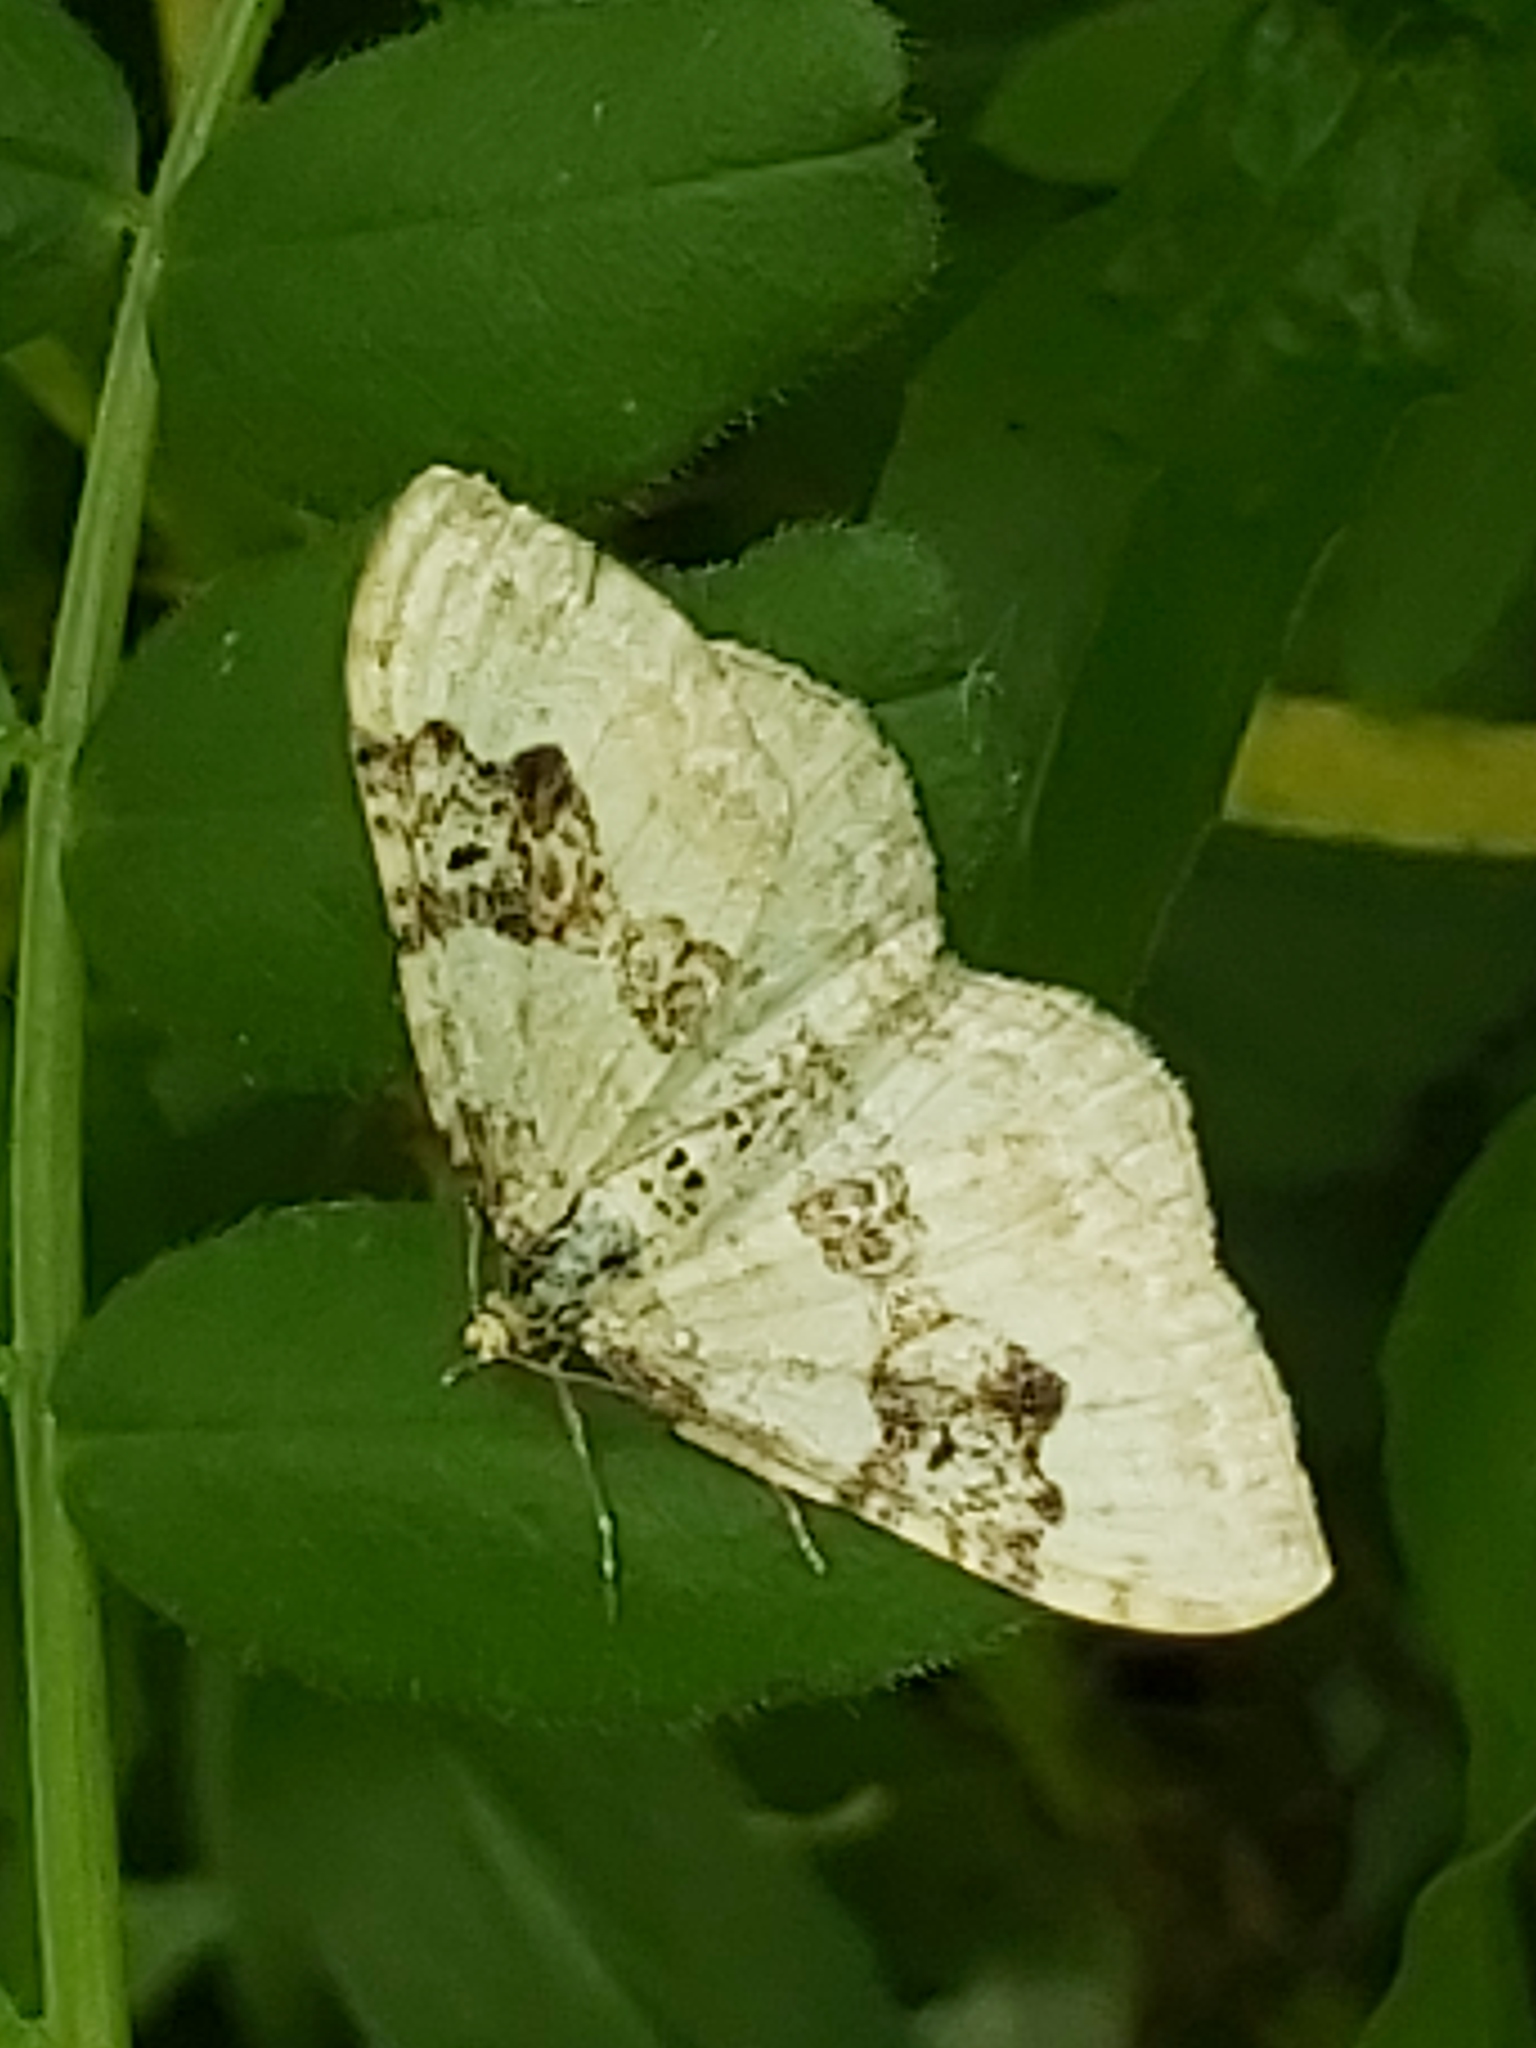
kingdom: Animalia
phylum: Arthropoda
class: Insecta
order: Lepidoptera
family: Geometridae
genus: Xanthorhoe
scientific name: Xanthorhoe montanata
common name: Silver-ground carpet
